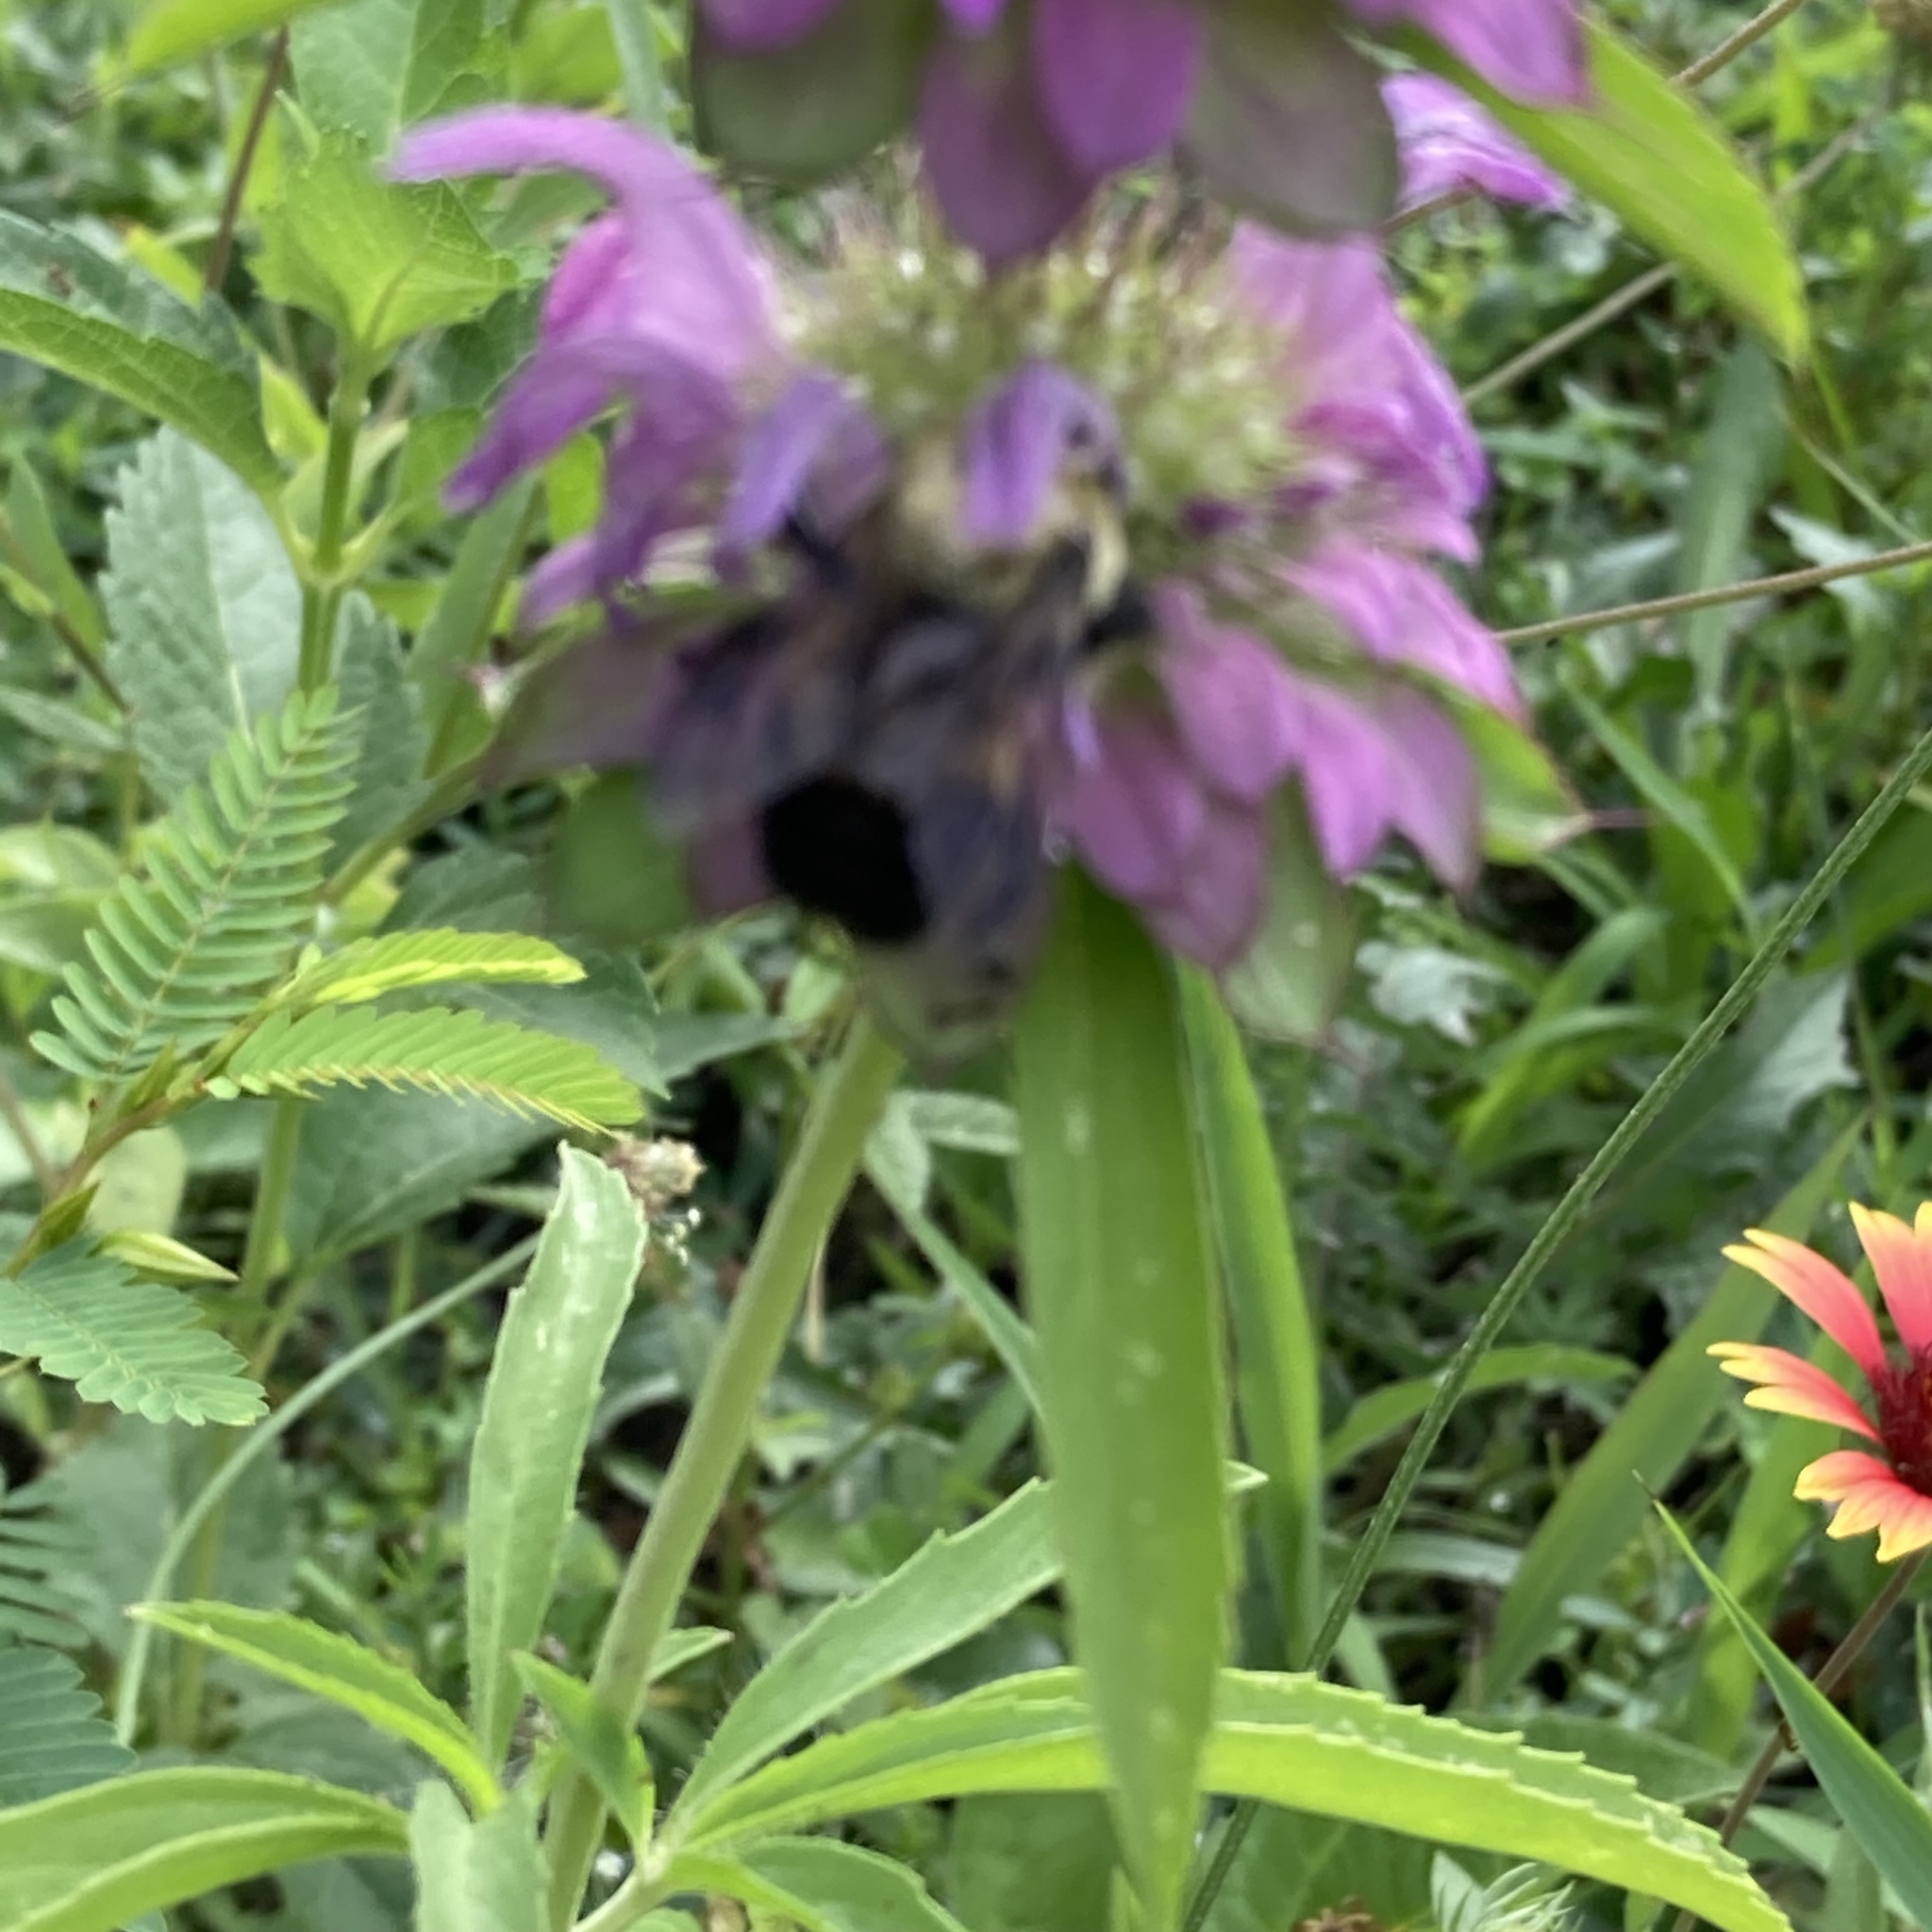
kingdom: Animalia
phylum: Arthropoda
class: Insecta
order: Hymenoptera
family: Apidae
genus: Bombus
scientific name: Bombus griseocollis
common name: Brown-belted bumble bee
